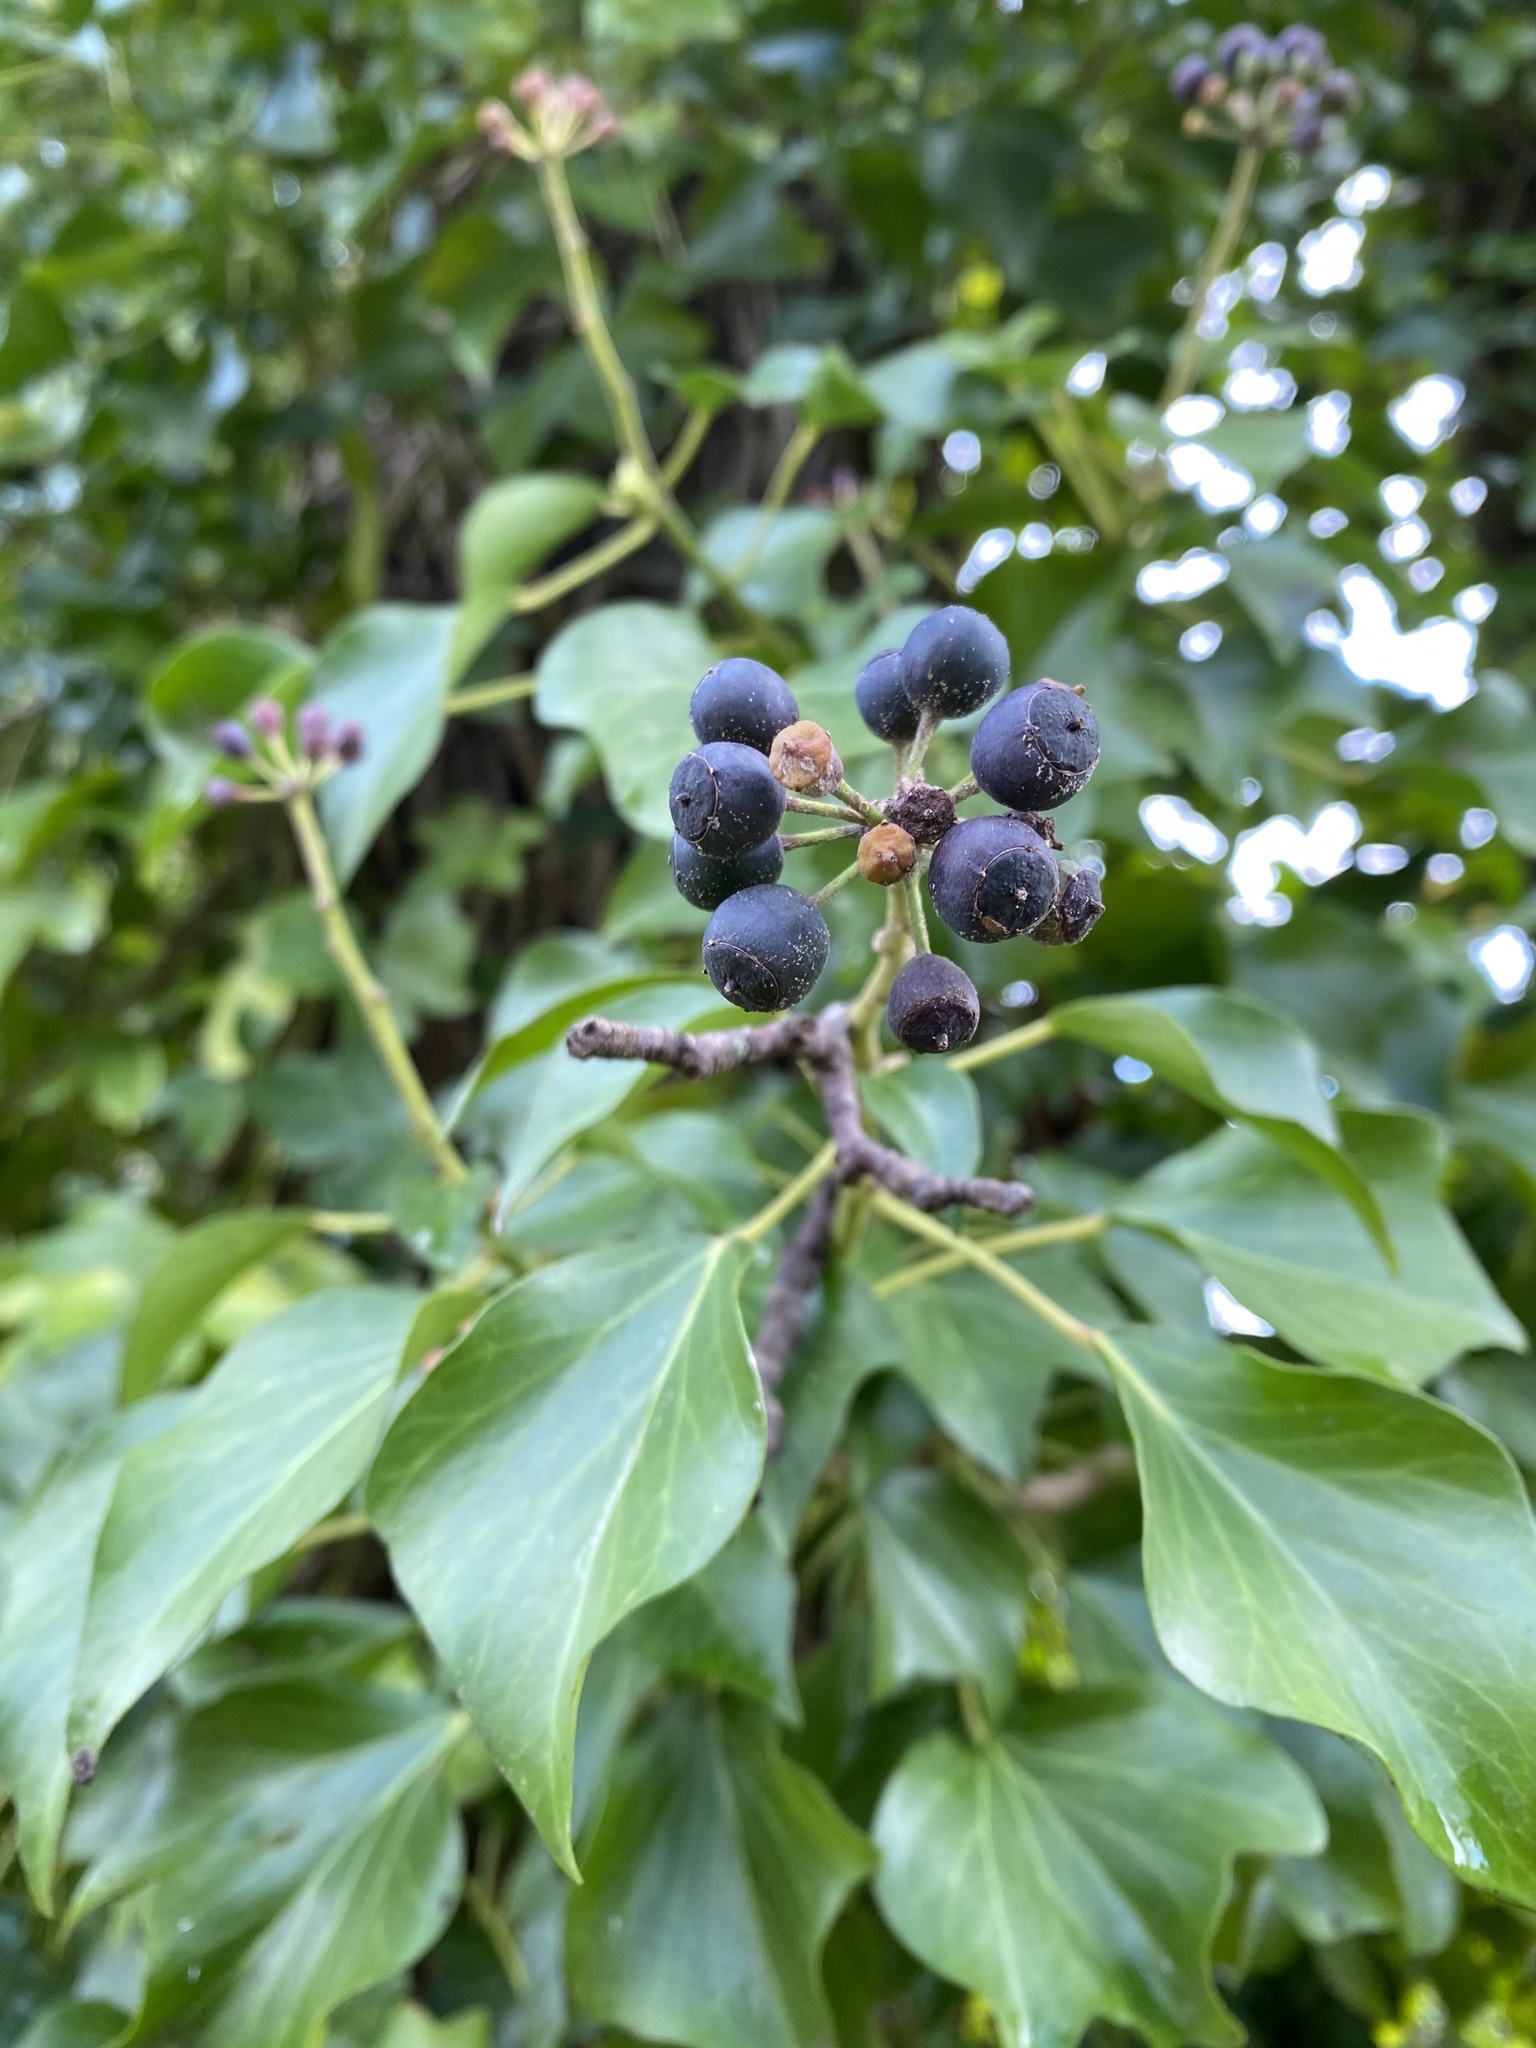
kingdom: Plantae
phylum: Tracheophyta
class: Magnoliopsida
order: Apiales
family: Araliaceae
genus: Hedera
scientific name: Hedera helix
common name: Ivy
